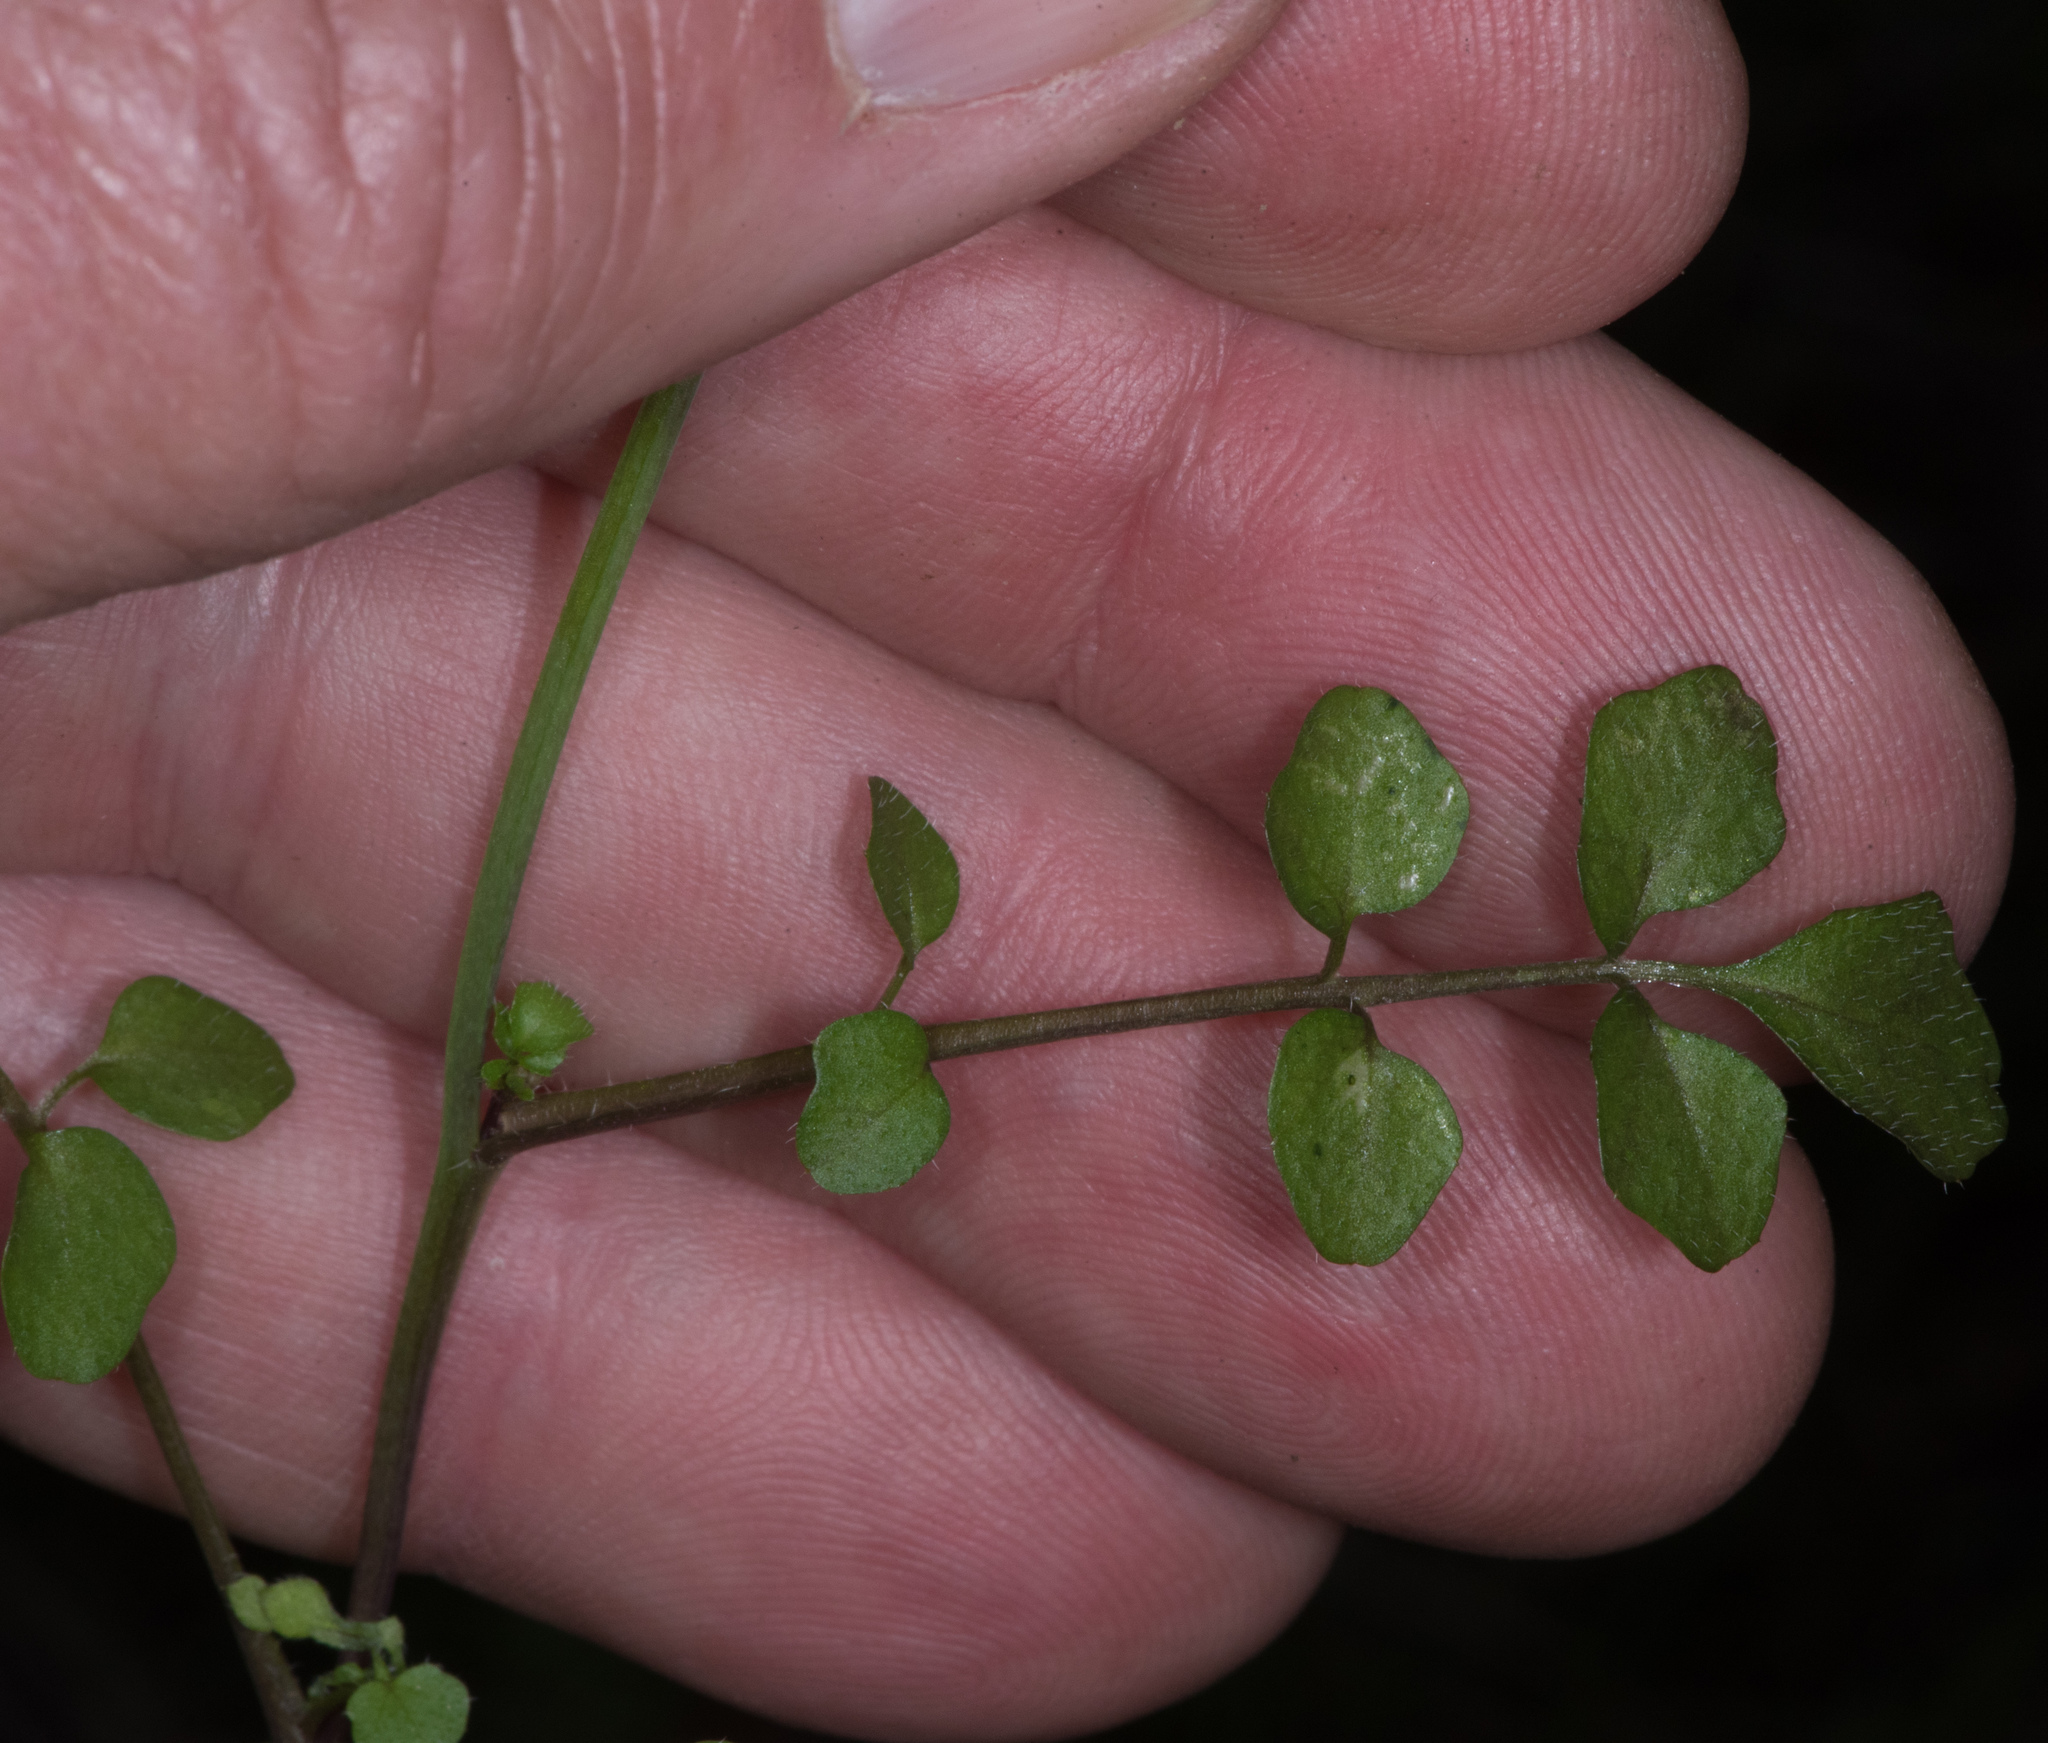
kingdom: Plantae
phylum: Tracheophyta
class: Magnoliopsida
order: Brassicales
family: Brassicaceae
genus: Cardamine
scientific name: Cardamine hirsuta
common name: Hairy bittercress
